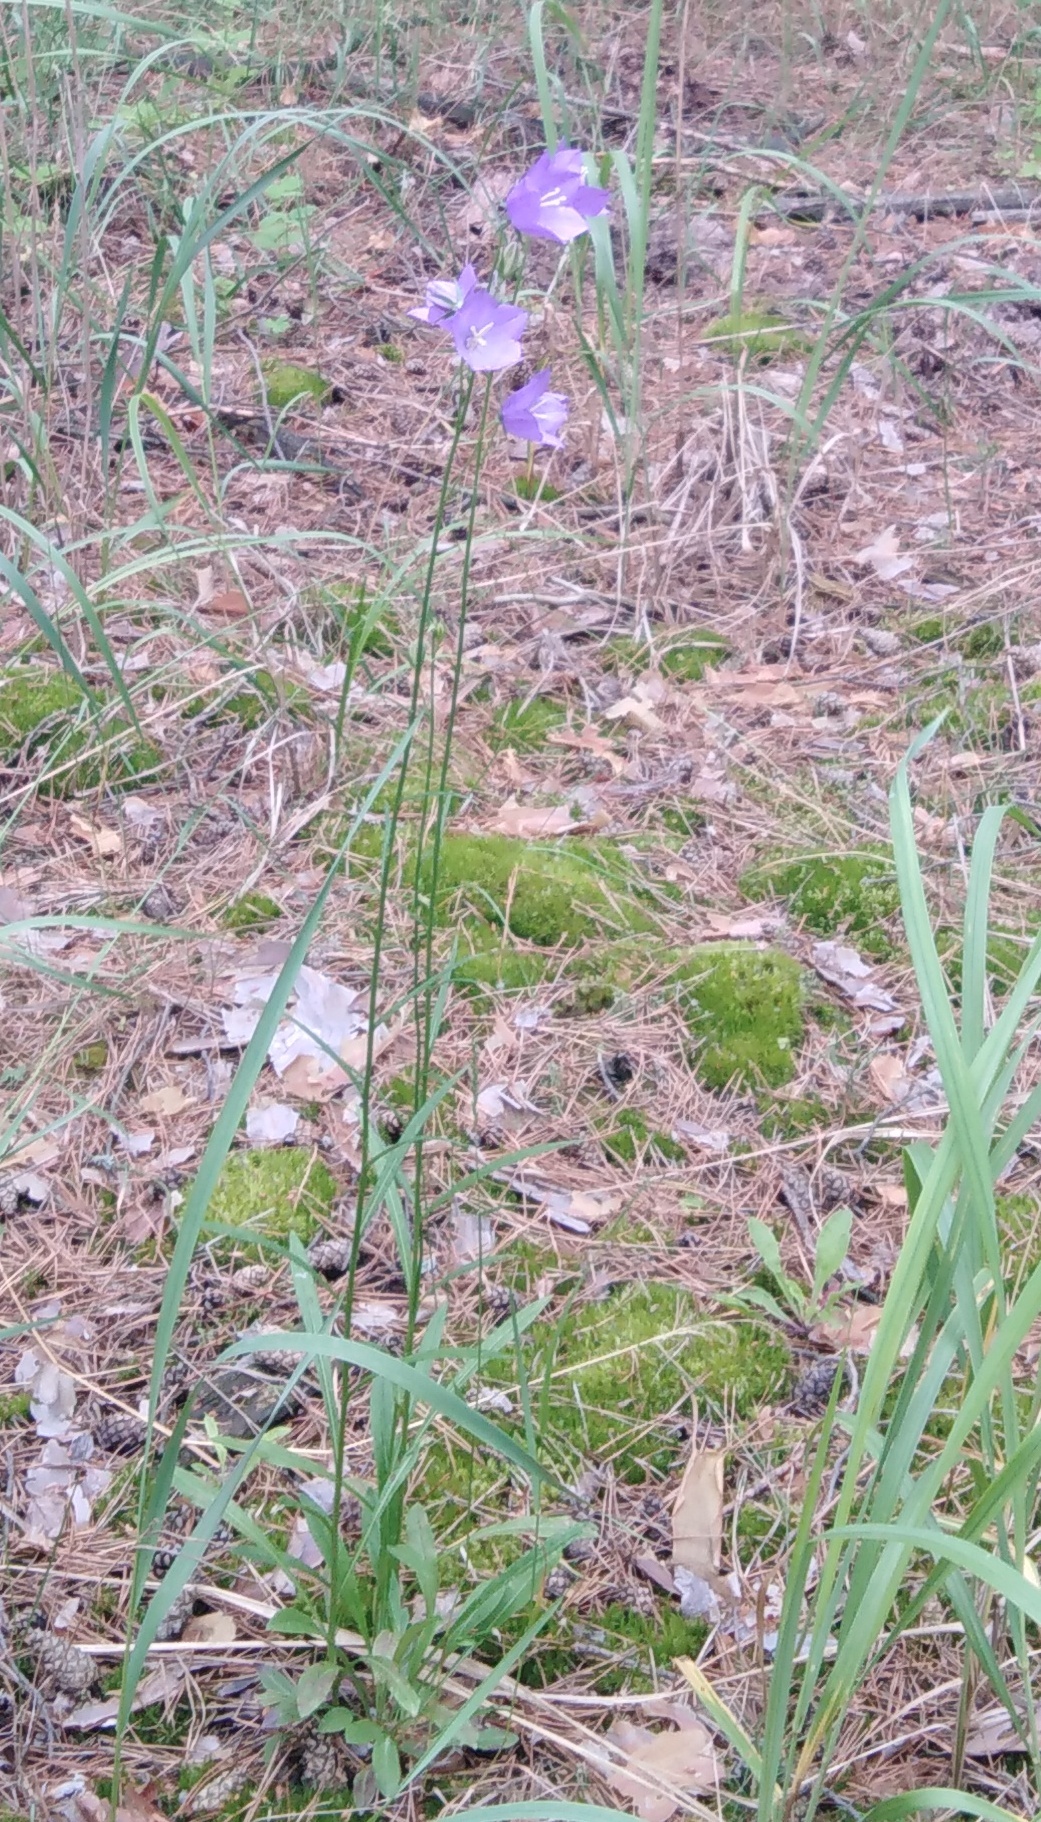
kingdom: Plantae
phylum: Tracheophyta
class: Magnoliopsida
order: Asterales
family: Campanulaceae
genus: Campanula
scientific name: Campanula persicifolia
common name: Peach-leaved bellflower
